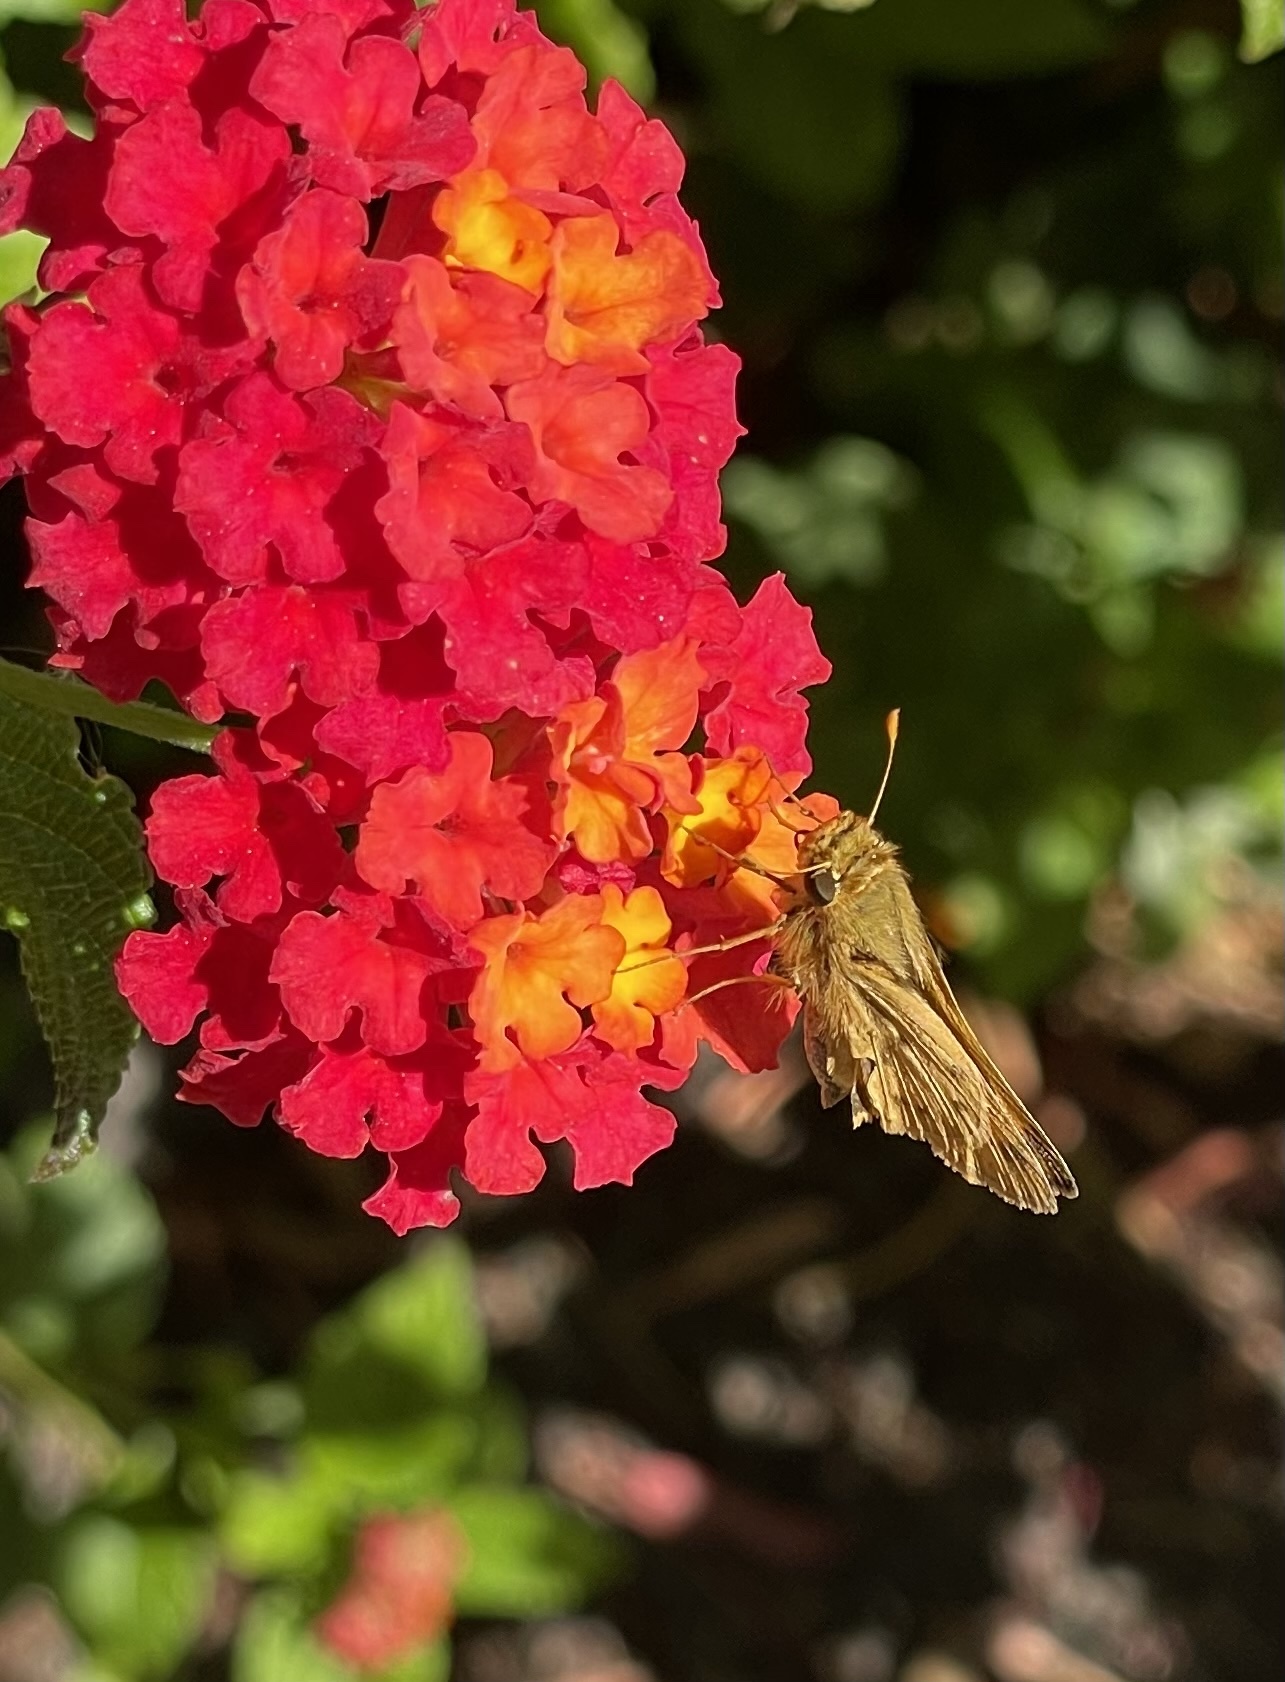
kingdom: Animalia
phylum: Arthropoda
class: Insecta
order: Lepidoptera
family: Hesperiidae
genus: Hylephila
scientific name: Hylephila phyleus
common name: Fiery skipper
